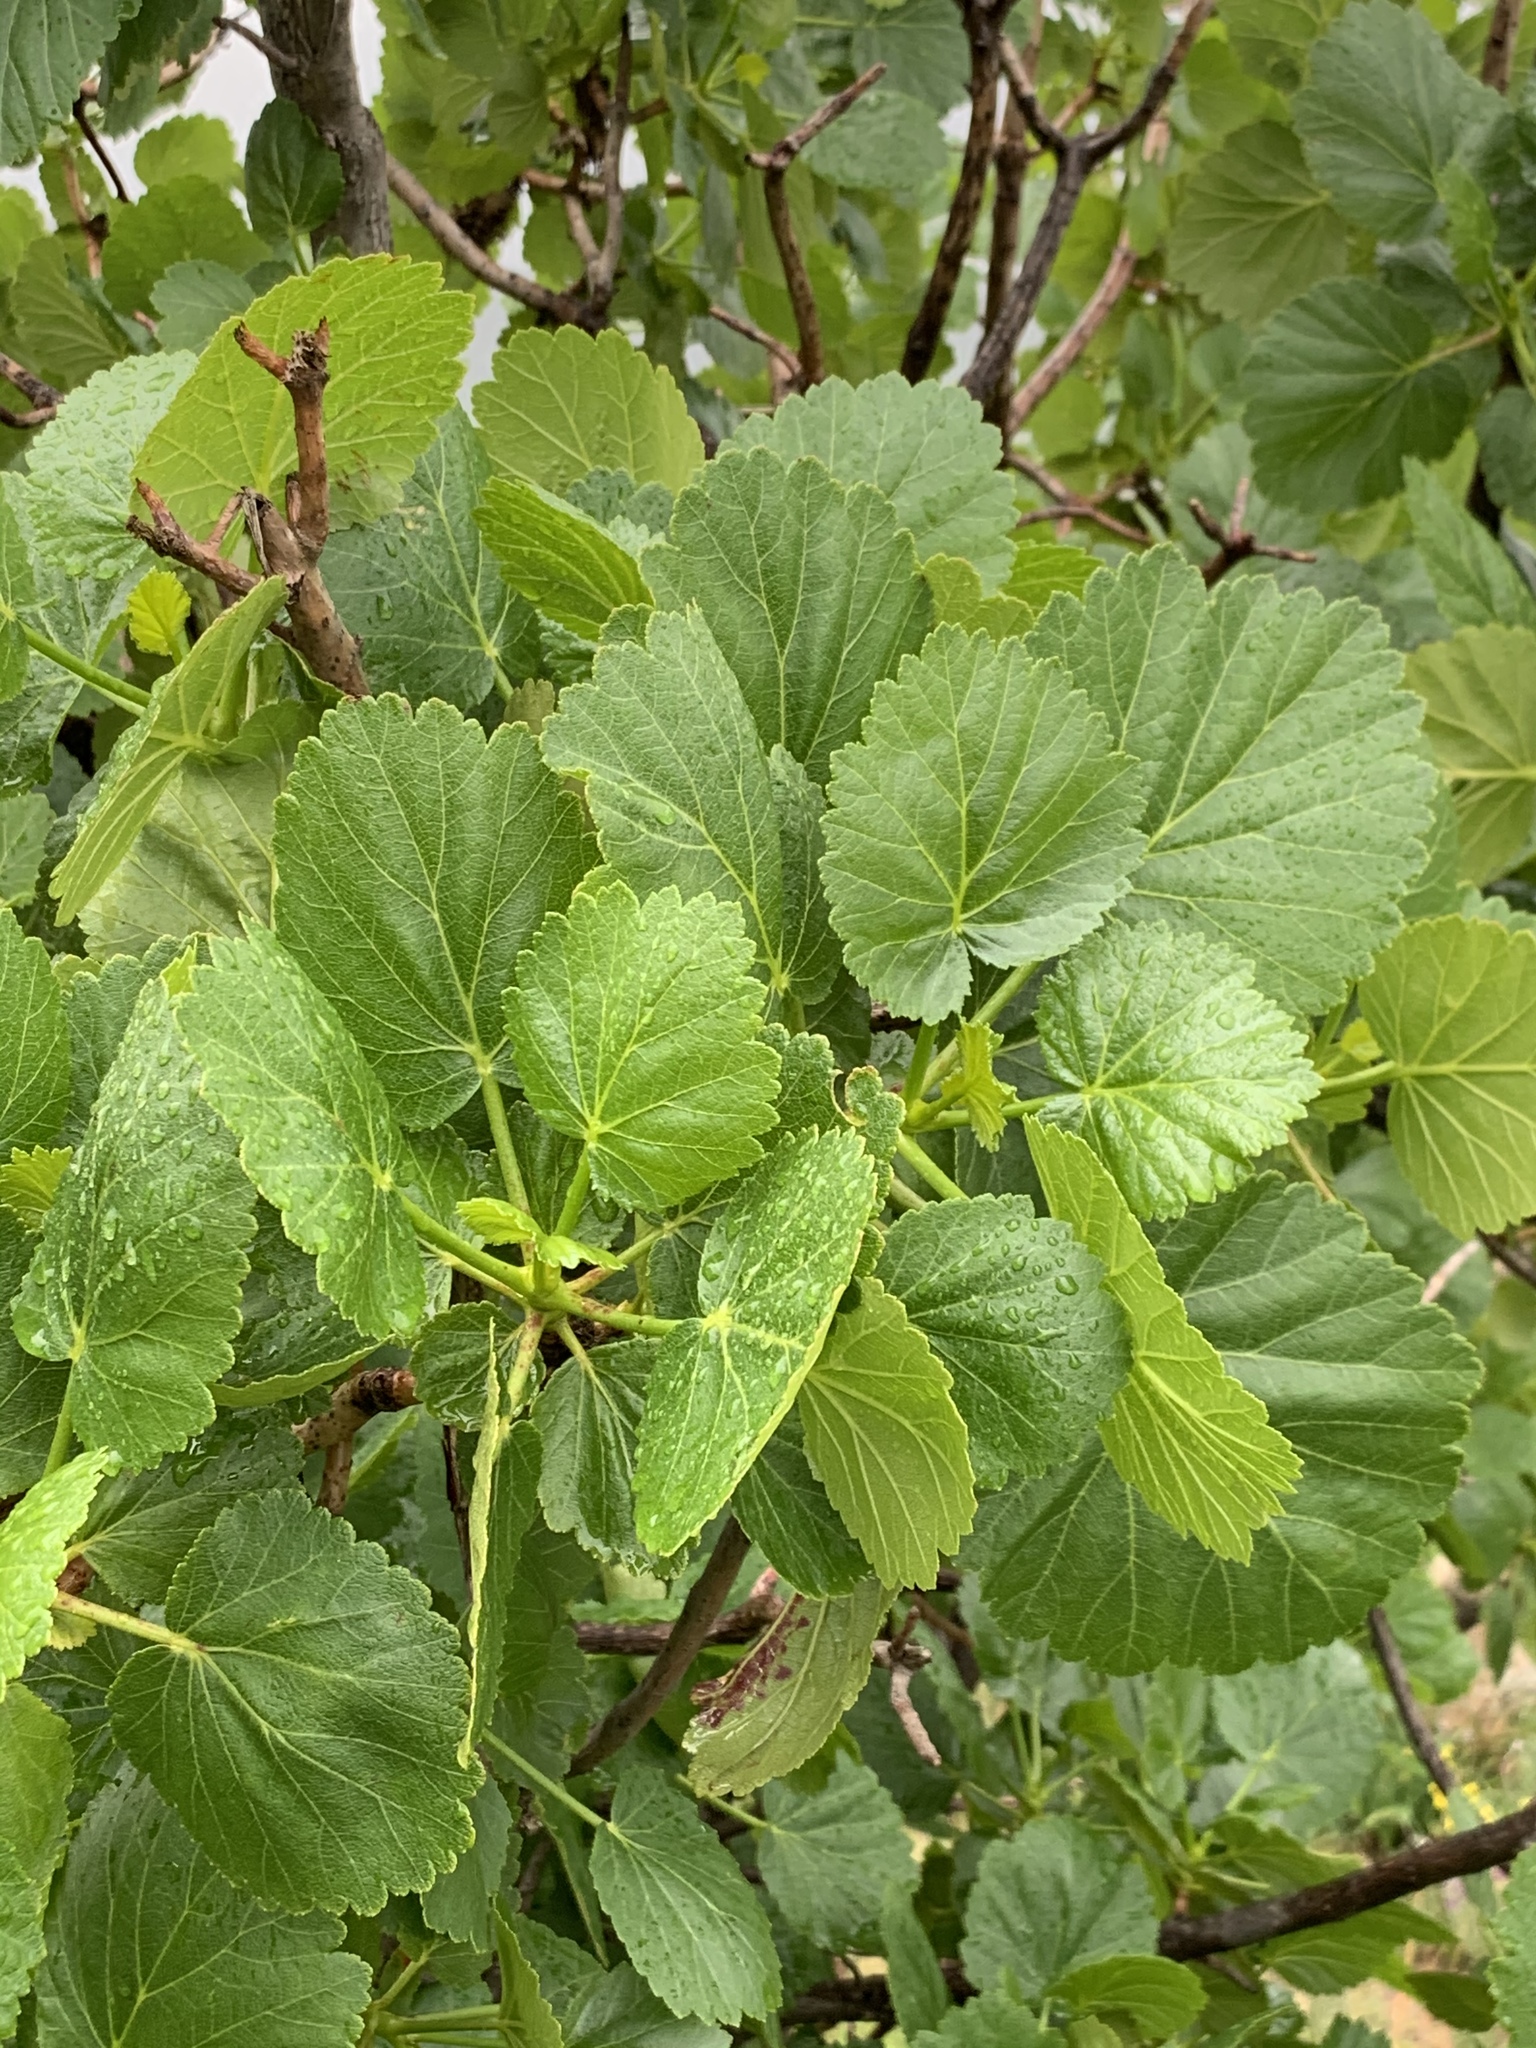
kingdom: Plantae
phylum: Tracheophyta
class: Magnoliopsida
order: Geraniales
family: Francoaceae
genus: Greyia
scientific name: Greyia sutherlandii
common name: Glossy bottlebrush
